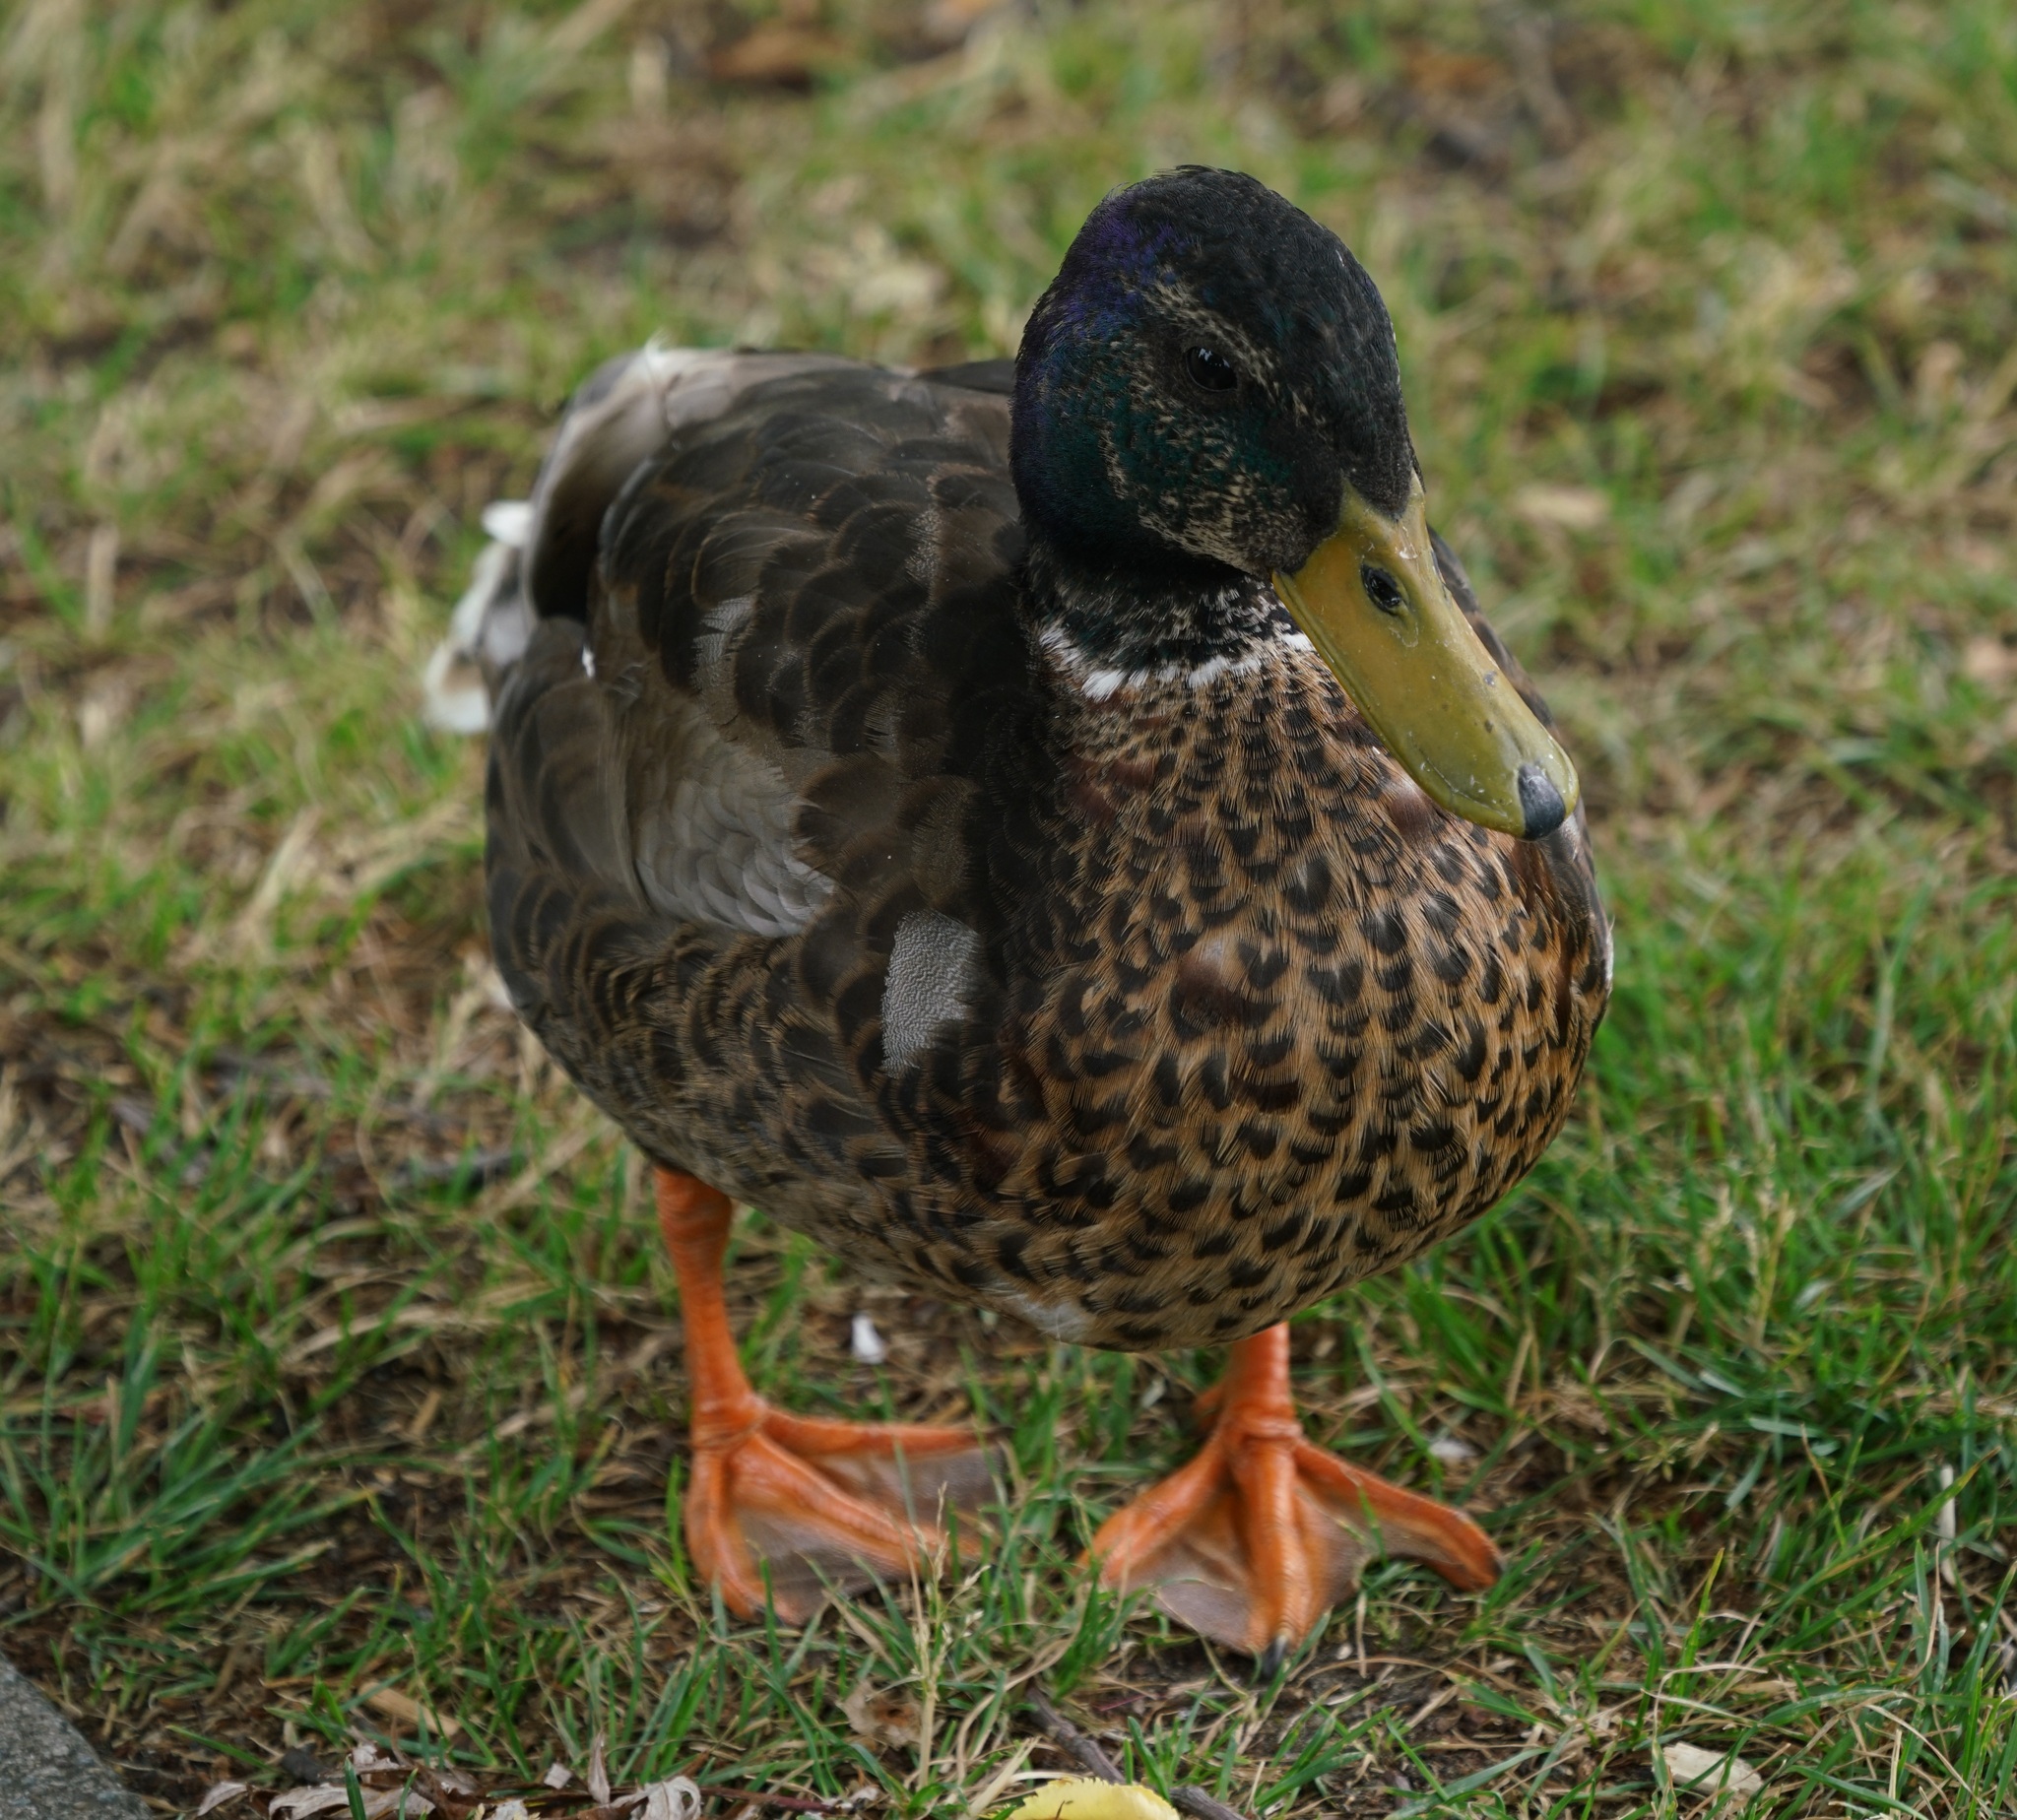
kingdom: Animalia
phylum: Chordata
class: Aves
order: Anseriformes
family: Anatidae
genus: Anas
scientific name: Anas platyrhynchos
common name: Mallard
